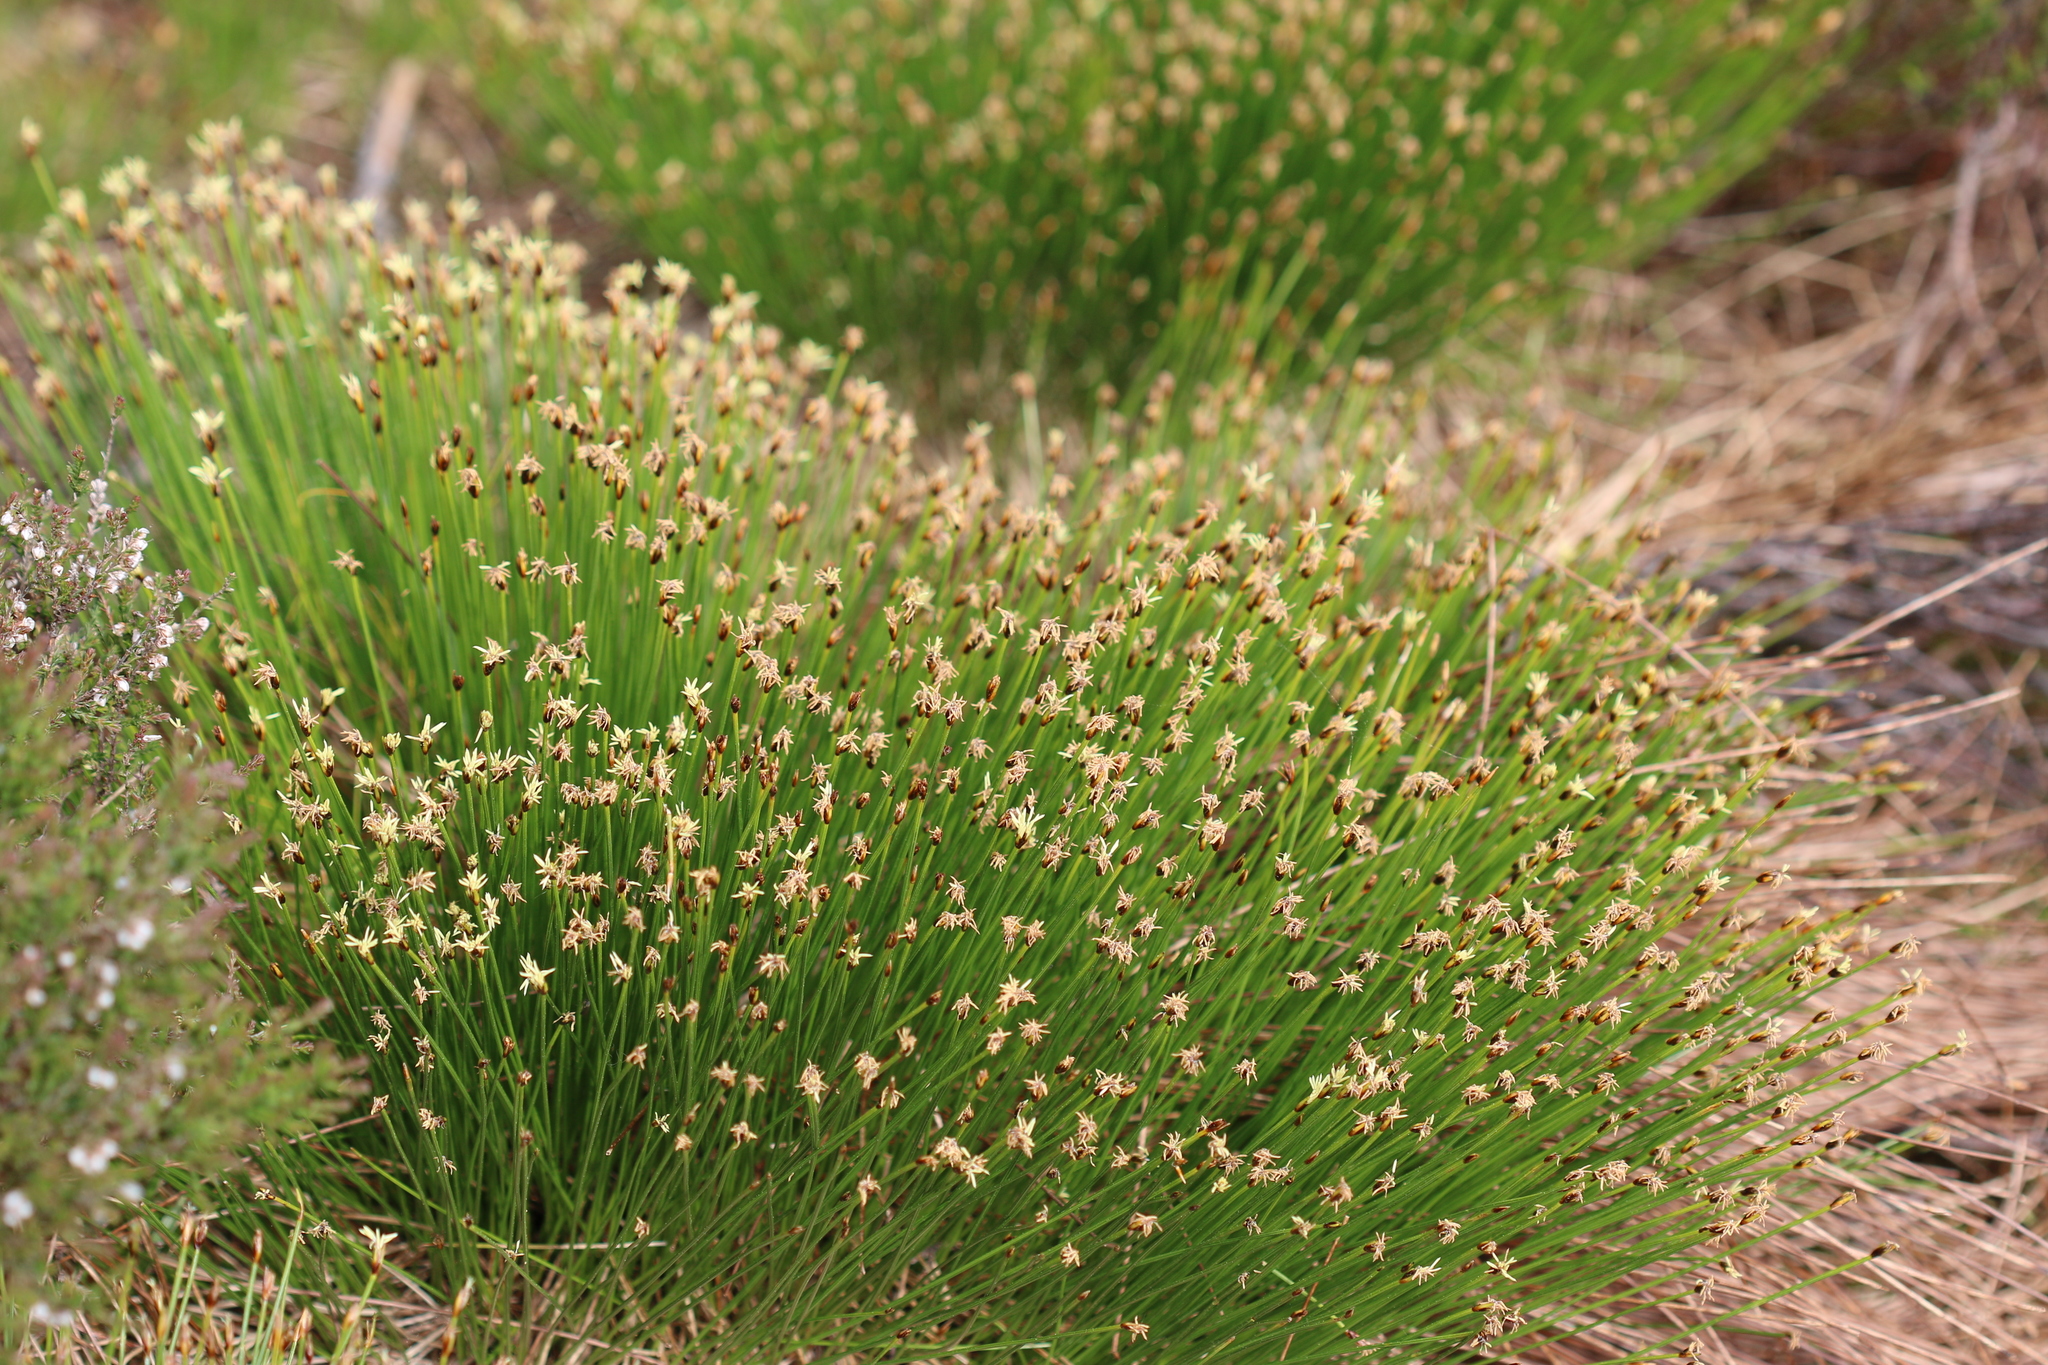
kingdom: Plantae
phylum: Tracheophyta
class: Liliopsida
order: Poales
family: Cyperaceae
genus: Trichophorum
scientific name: Trichophorum cespitosum
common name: Cespitose bulrush
